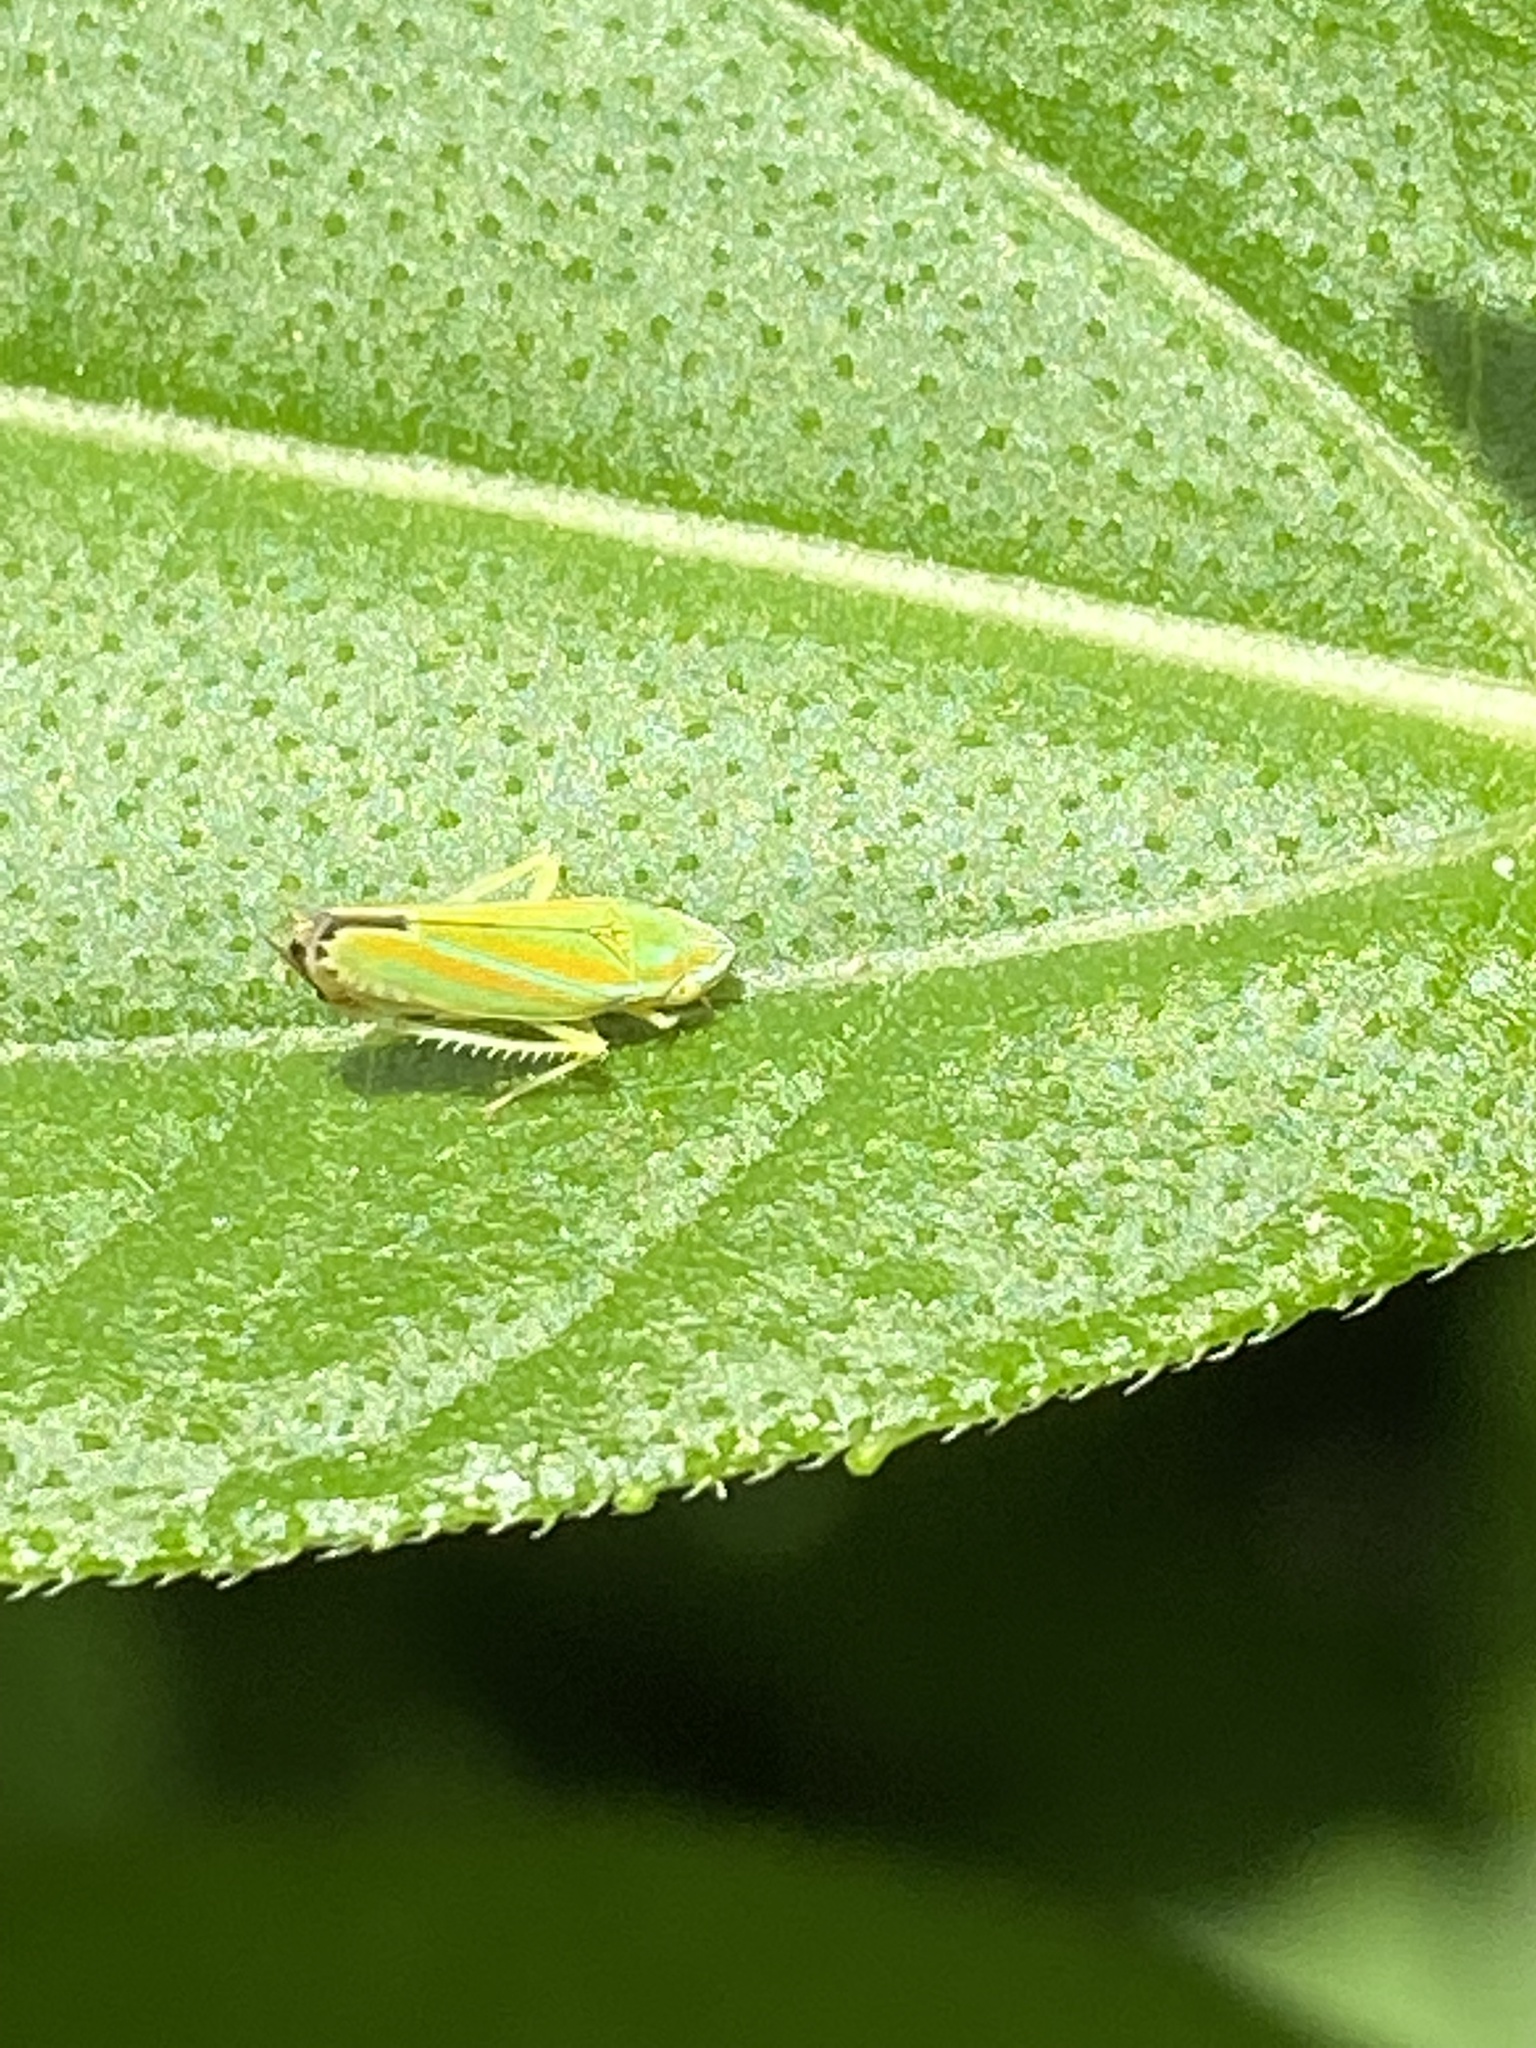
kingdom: Animalia
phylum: Arthropoda
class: Insecta
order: Hemiptera
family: Cicadellidae
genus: Graphocephala
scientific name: Graphocephala versuta
